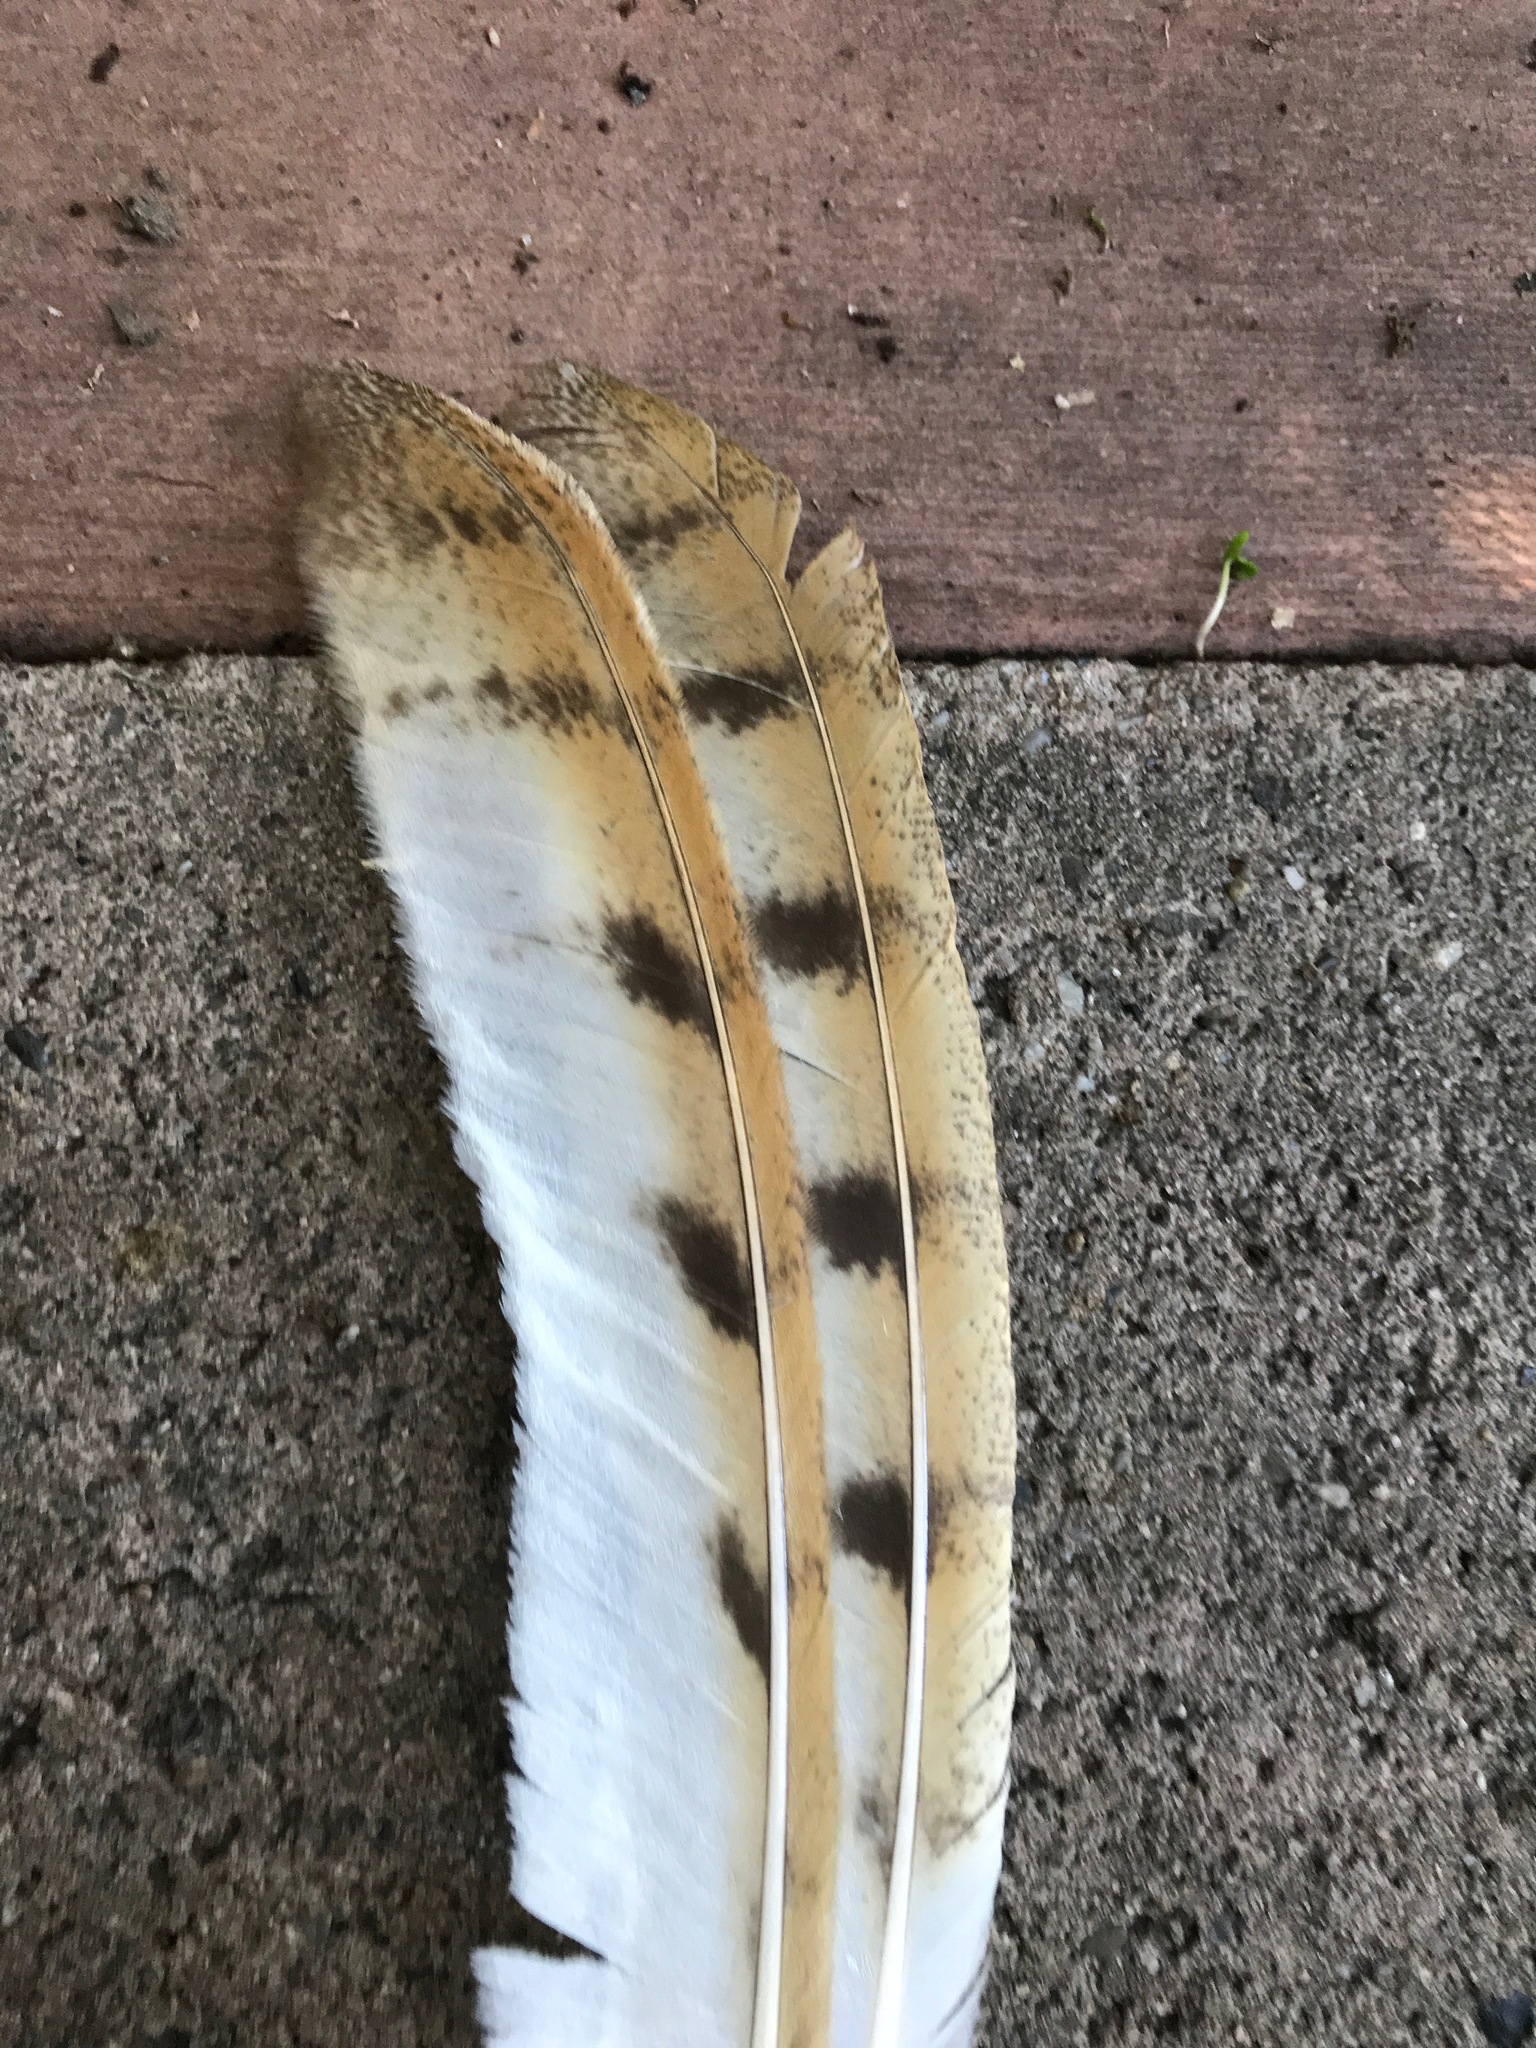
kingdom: Animalia
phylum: Chordata
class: Aves
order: Strigiformes
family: Tytonidae
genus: Tyto
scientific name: Tyto alba
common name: Barn owl
